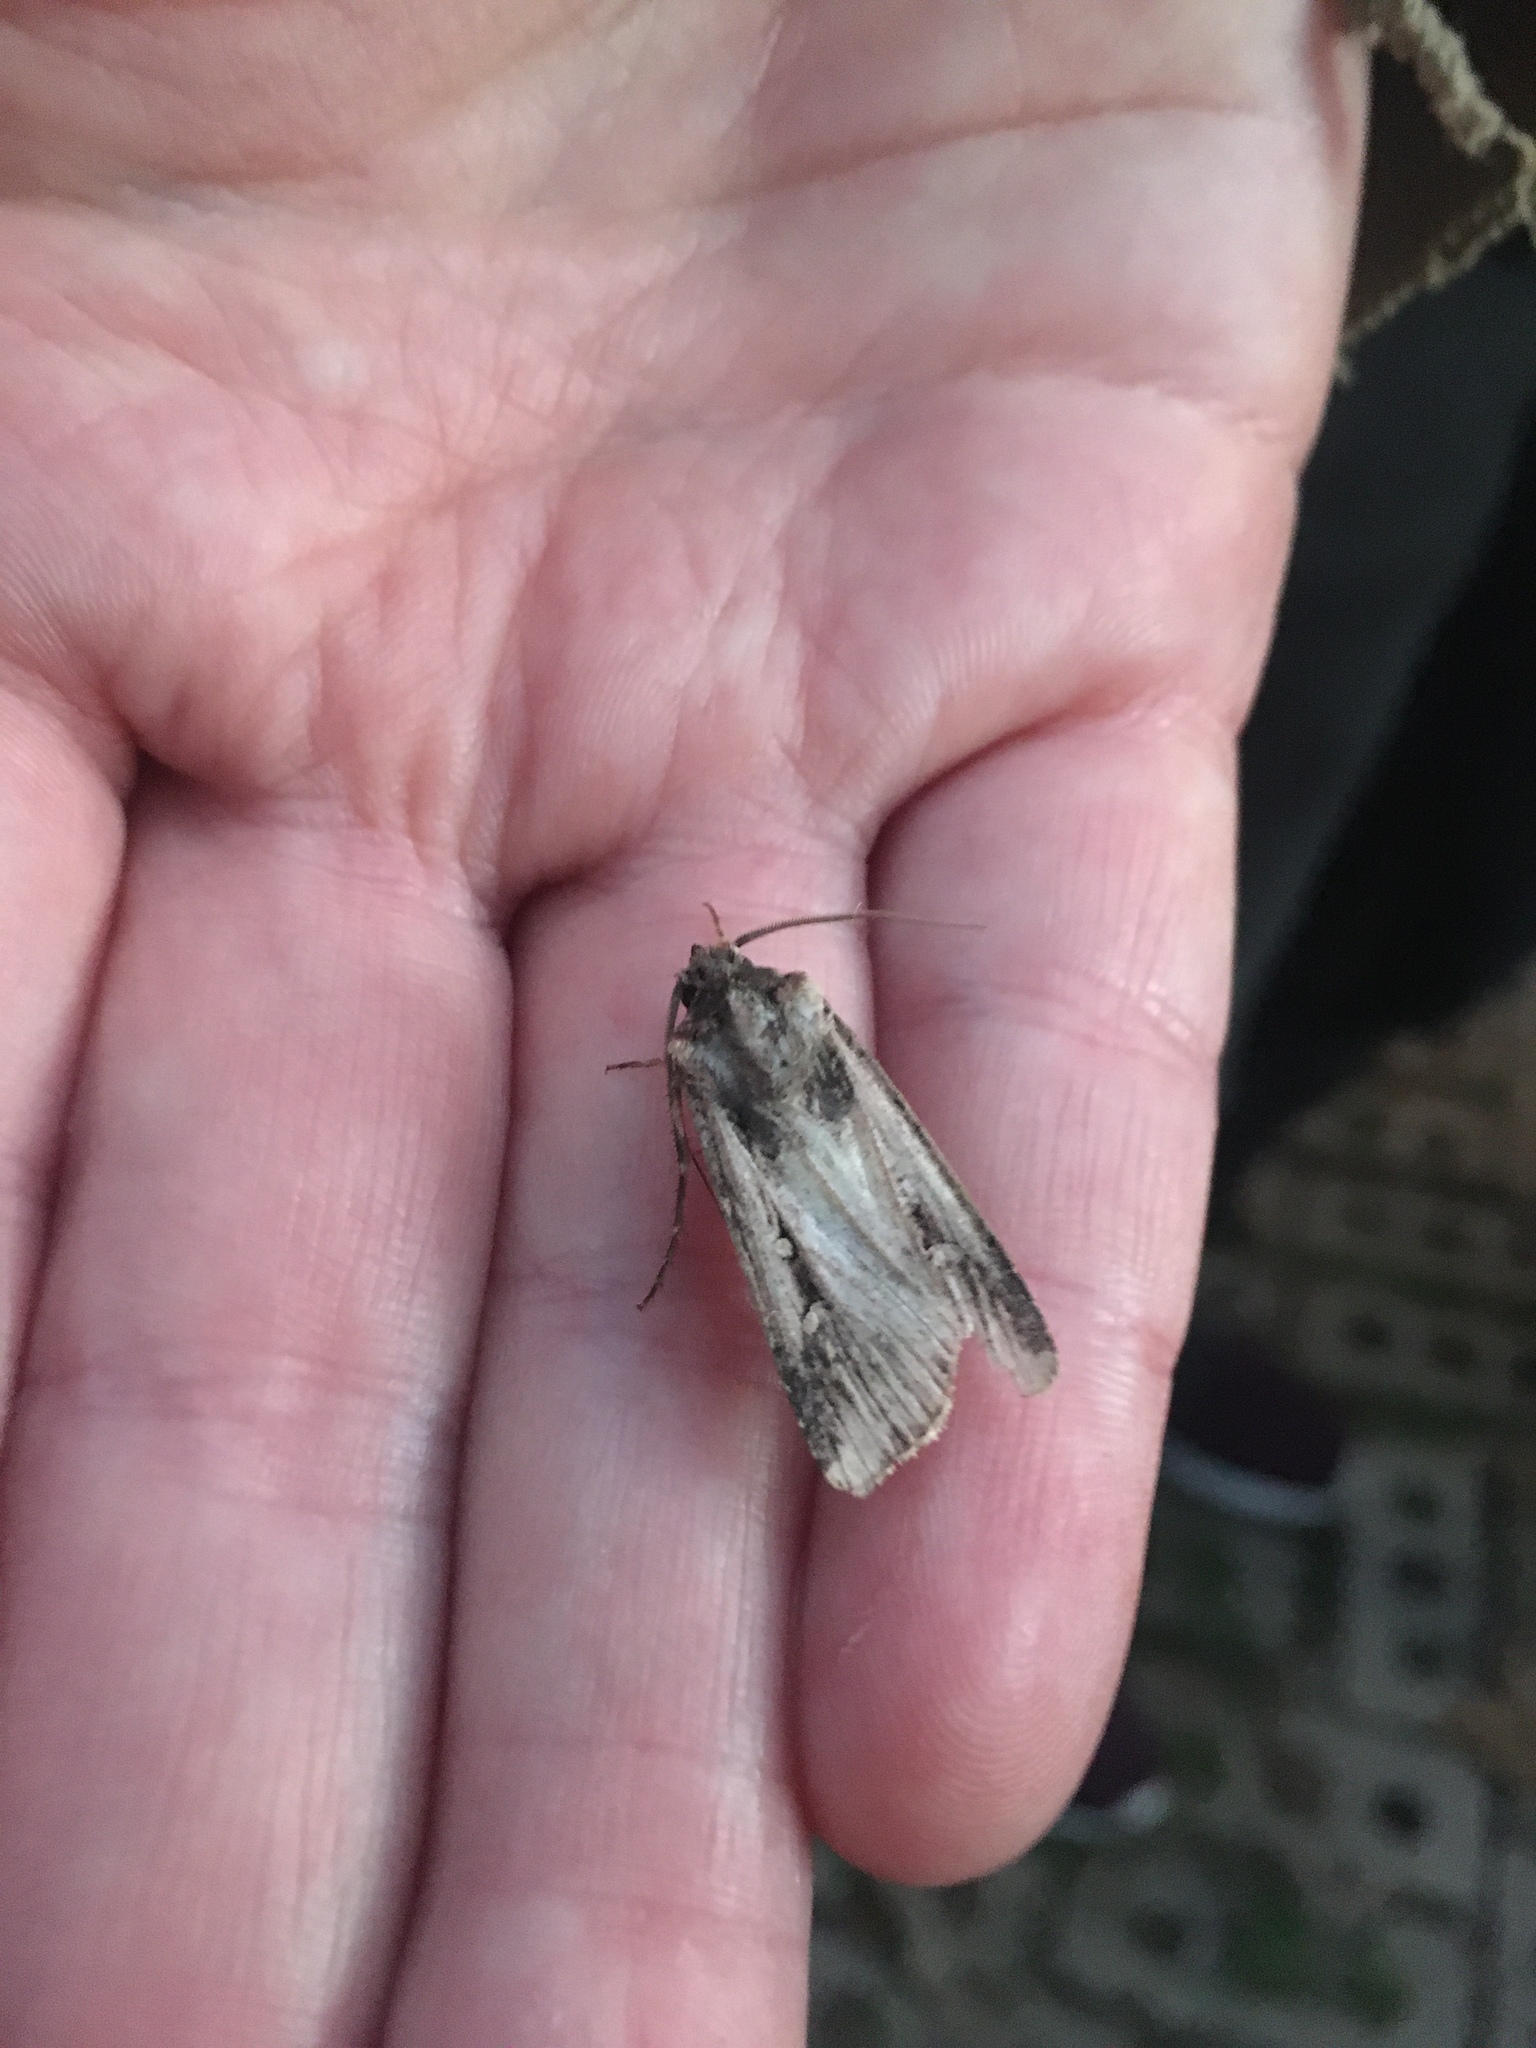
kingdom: Animalia
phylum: Arthropoda
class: Insecta
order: Lepidoptera
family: Noctuidae
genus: Feltia
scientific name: Feltia subterranea
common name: Granulate cutworm
